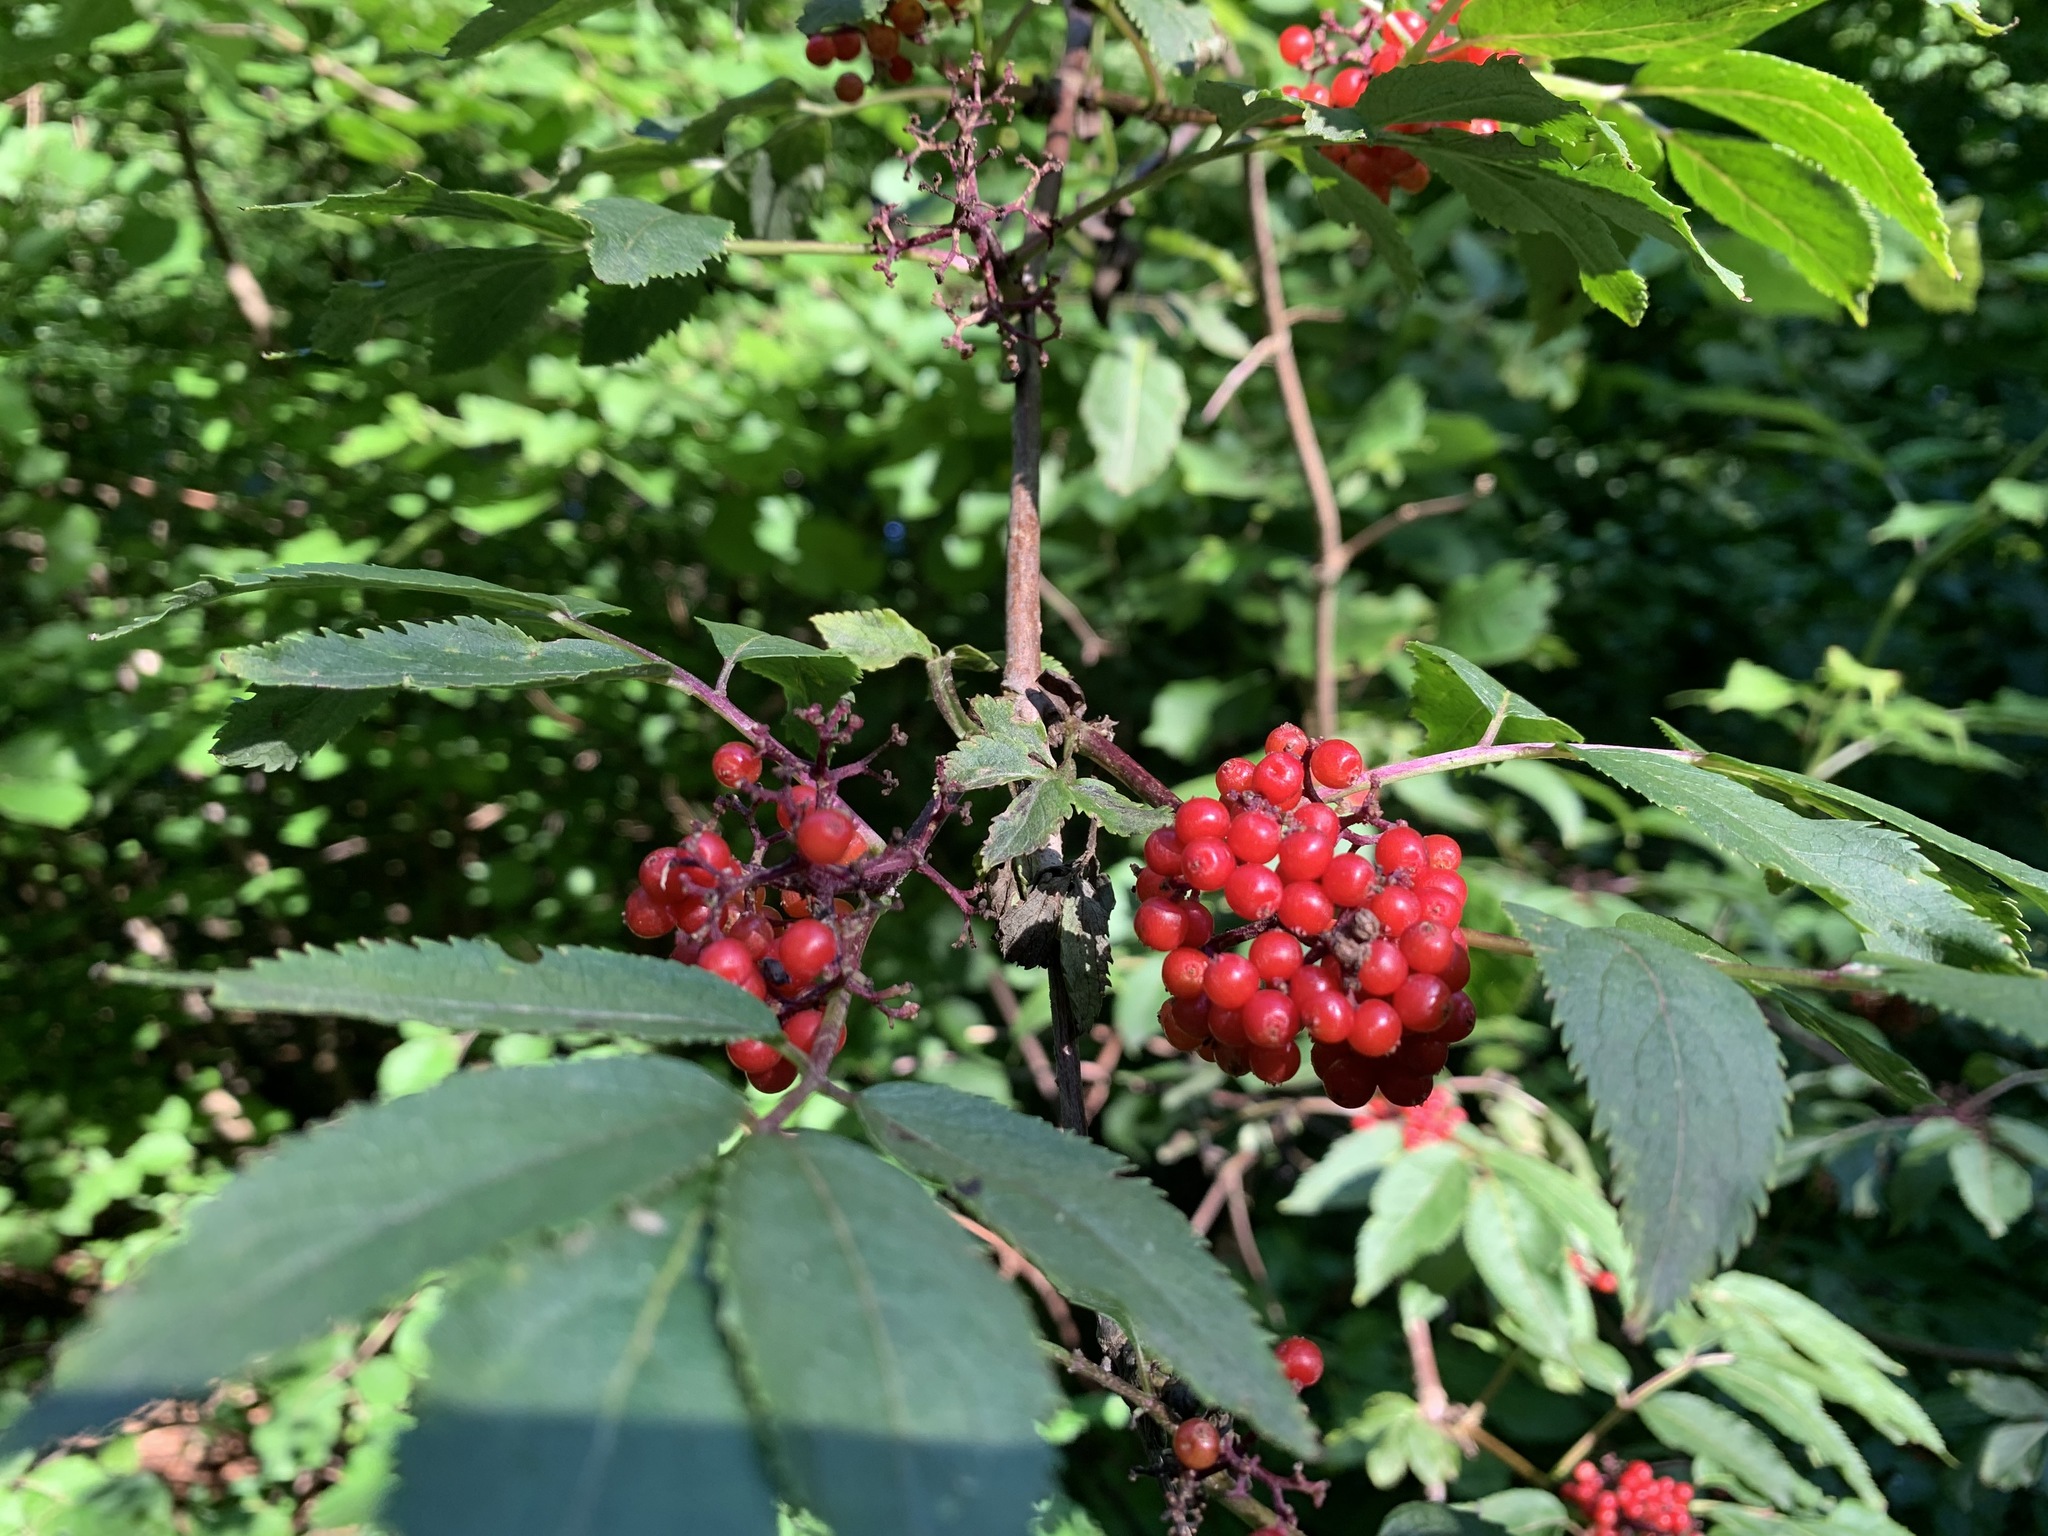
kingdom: Plantae
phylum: Tracheophyta
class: Magnoliopsida
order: Dipsacales
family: Viburnaceae
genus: Sambucus
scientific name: Sambucus racemosa
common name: Red-berried elder
